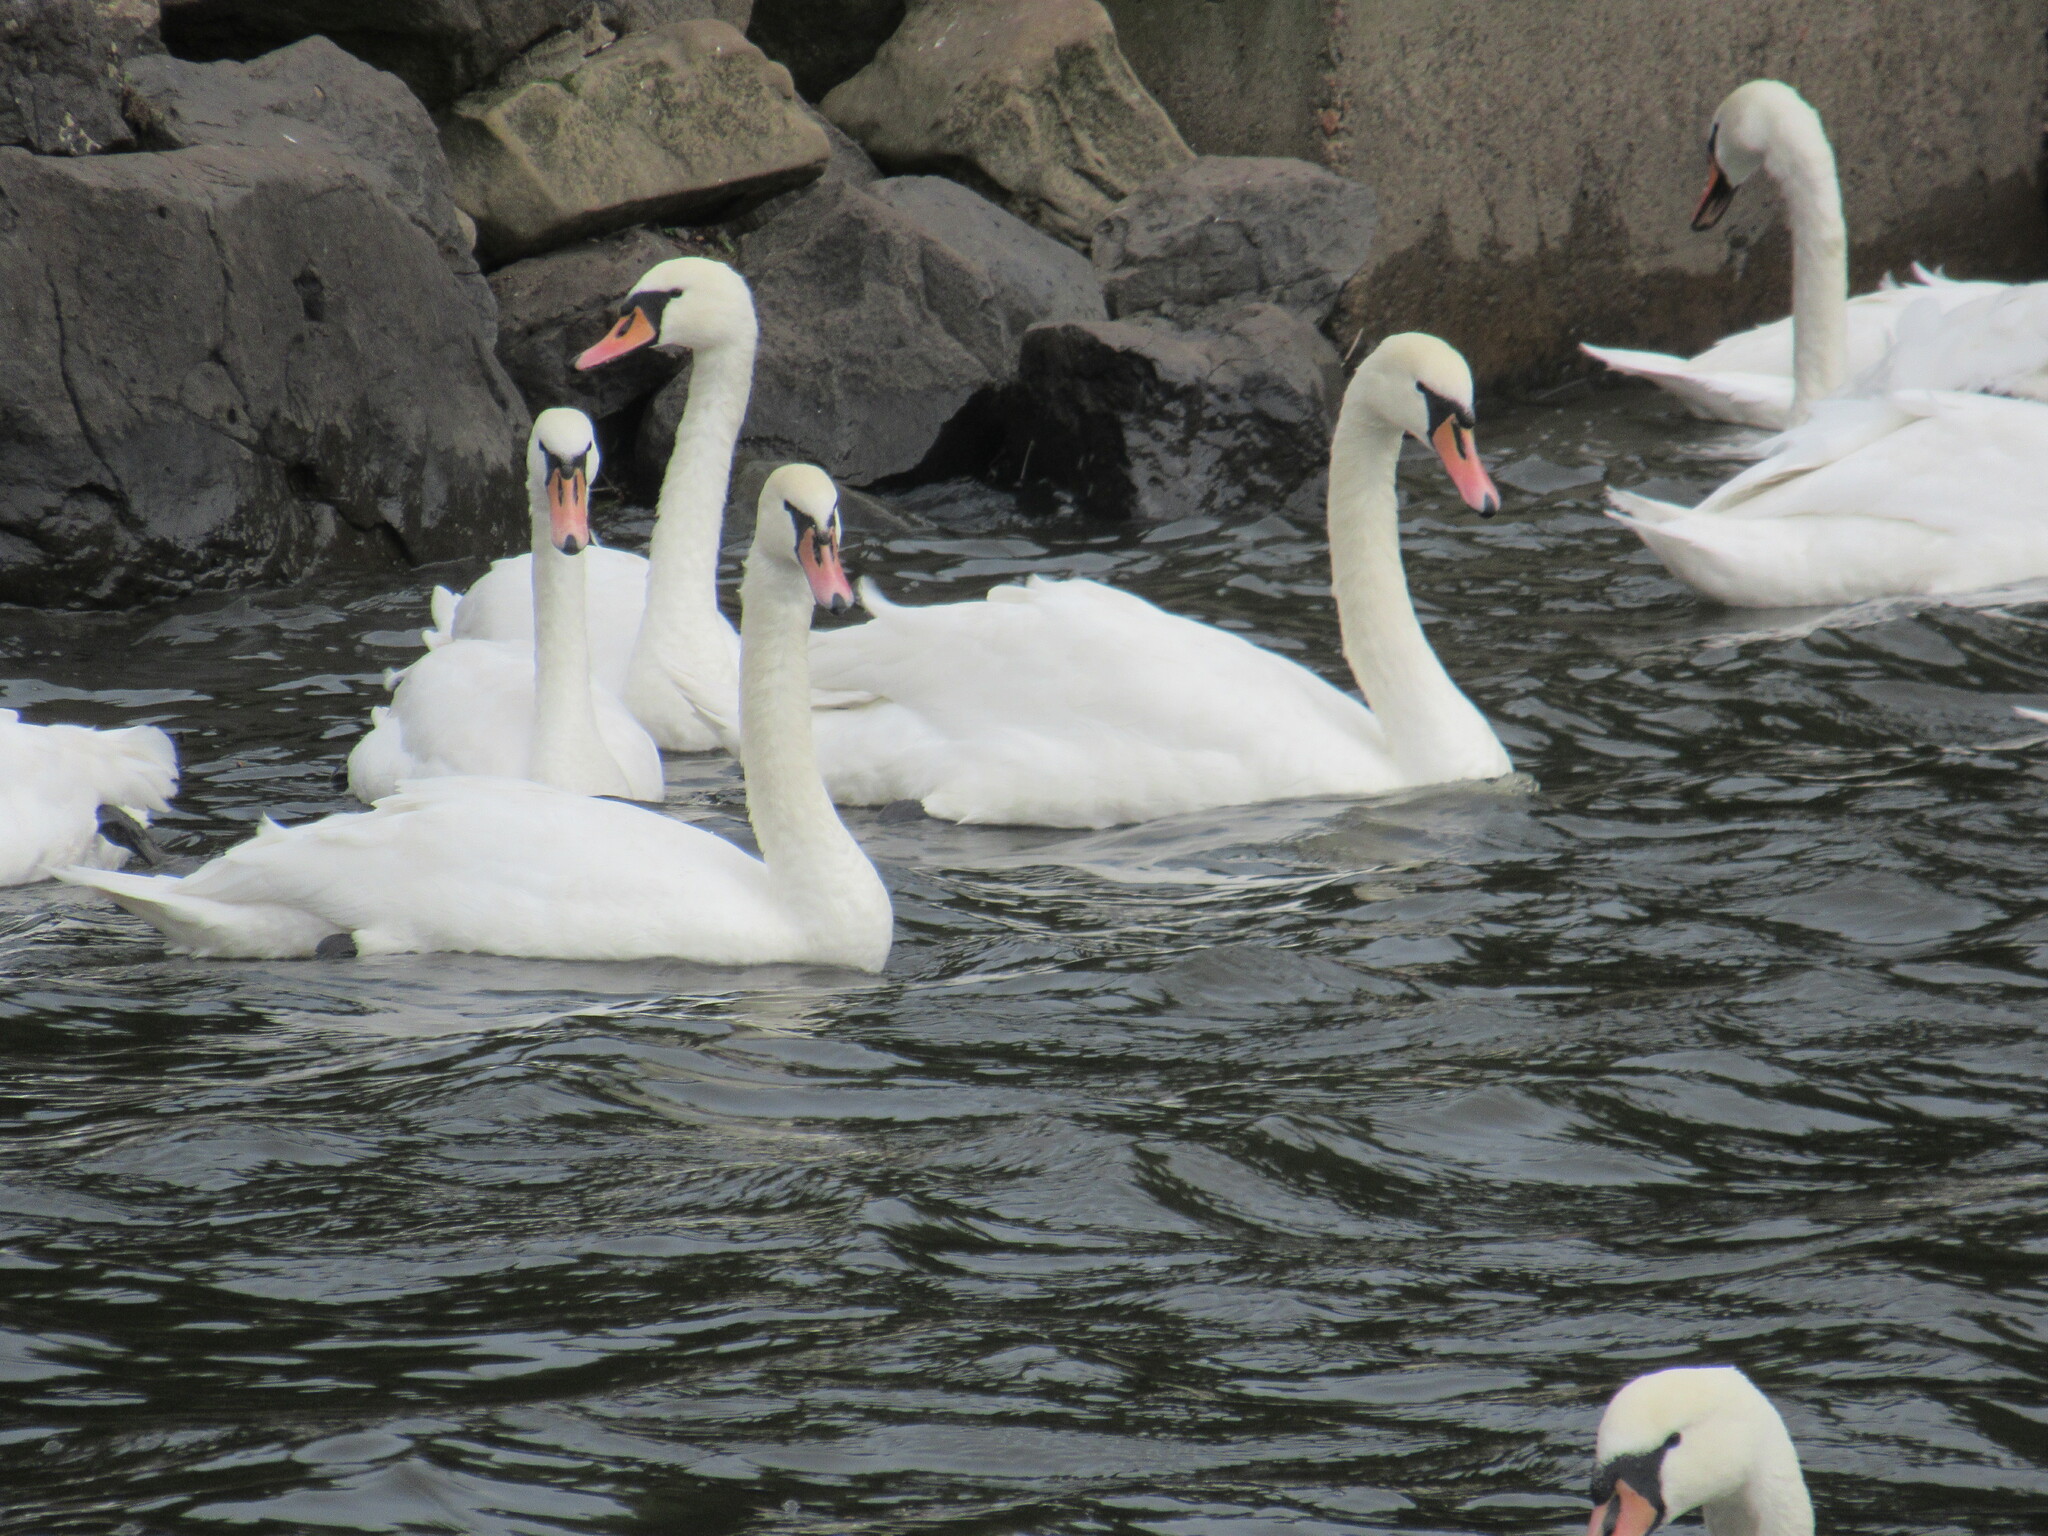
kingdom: Animalia
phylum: Chordata
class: Aves
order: Anseriformes
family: Anatidae
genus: Cygnus
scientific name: Cygnus olor
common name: Mute swan
